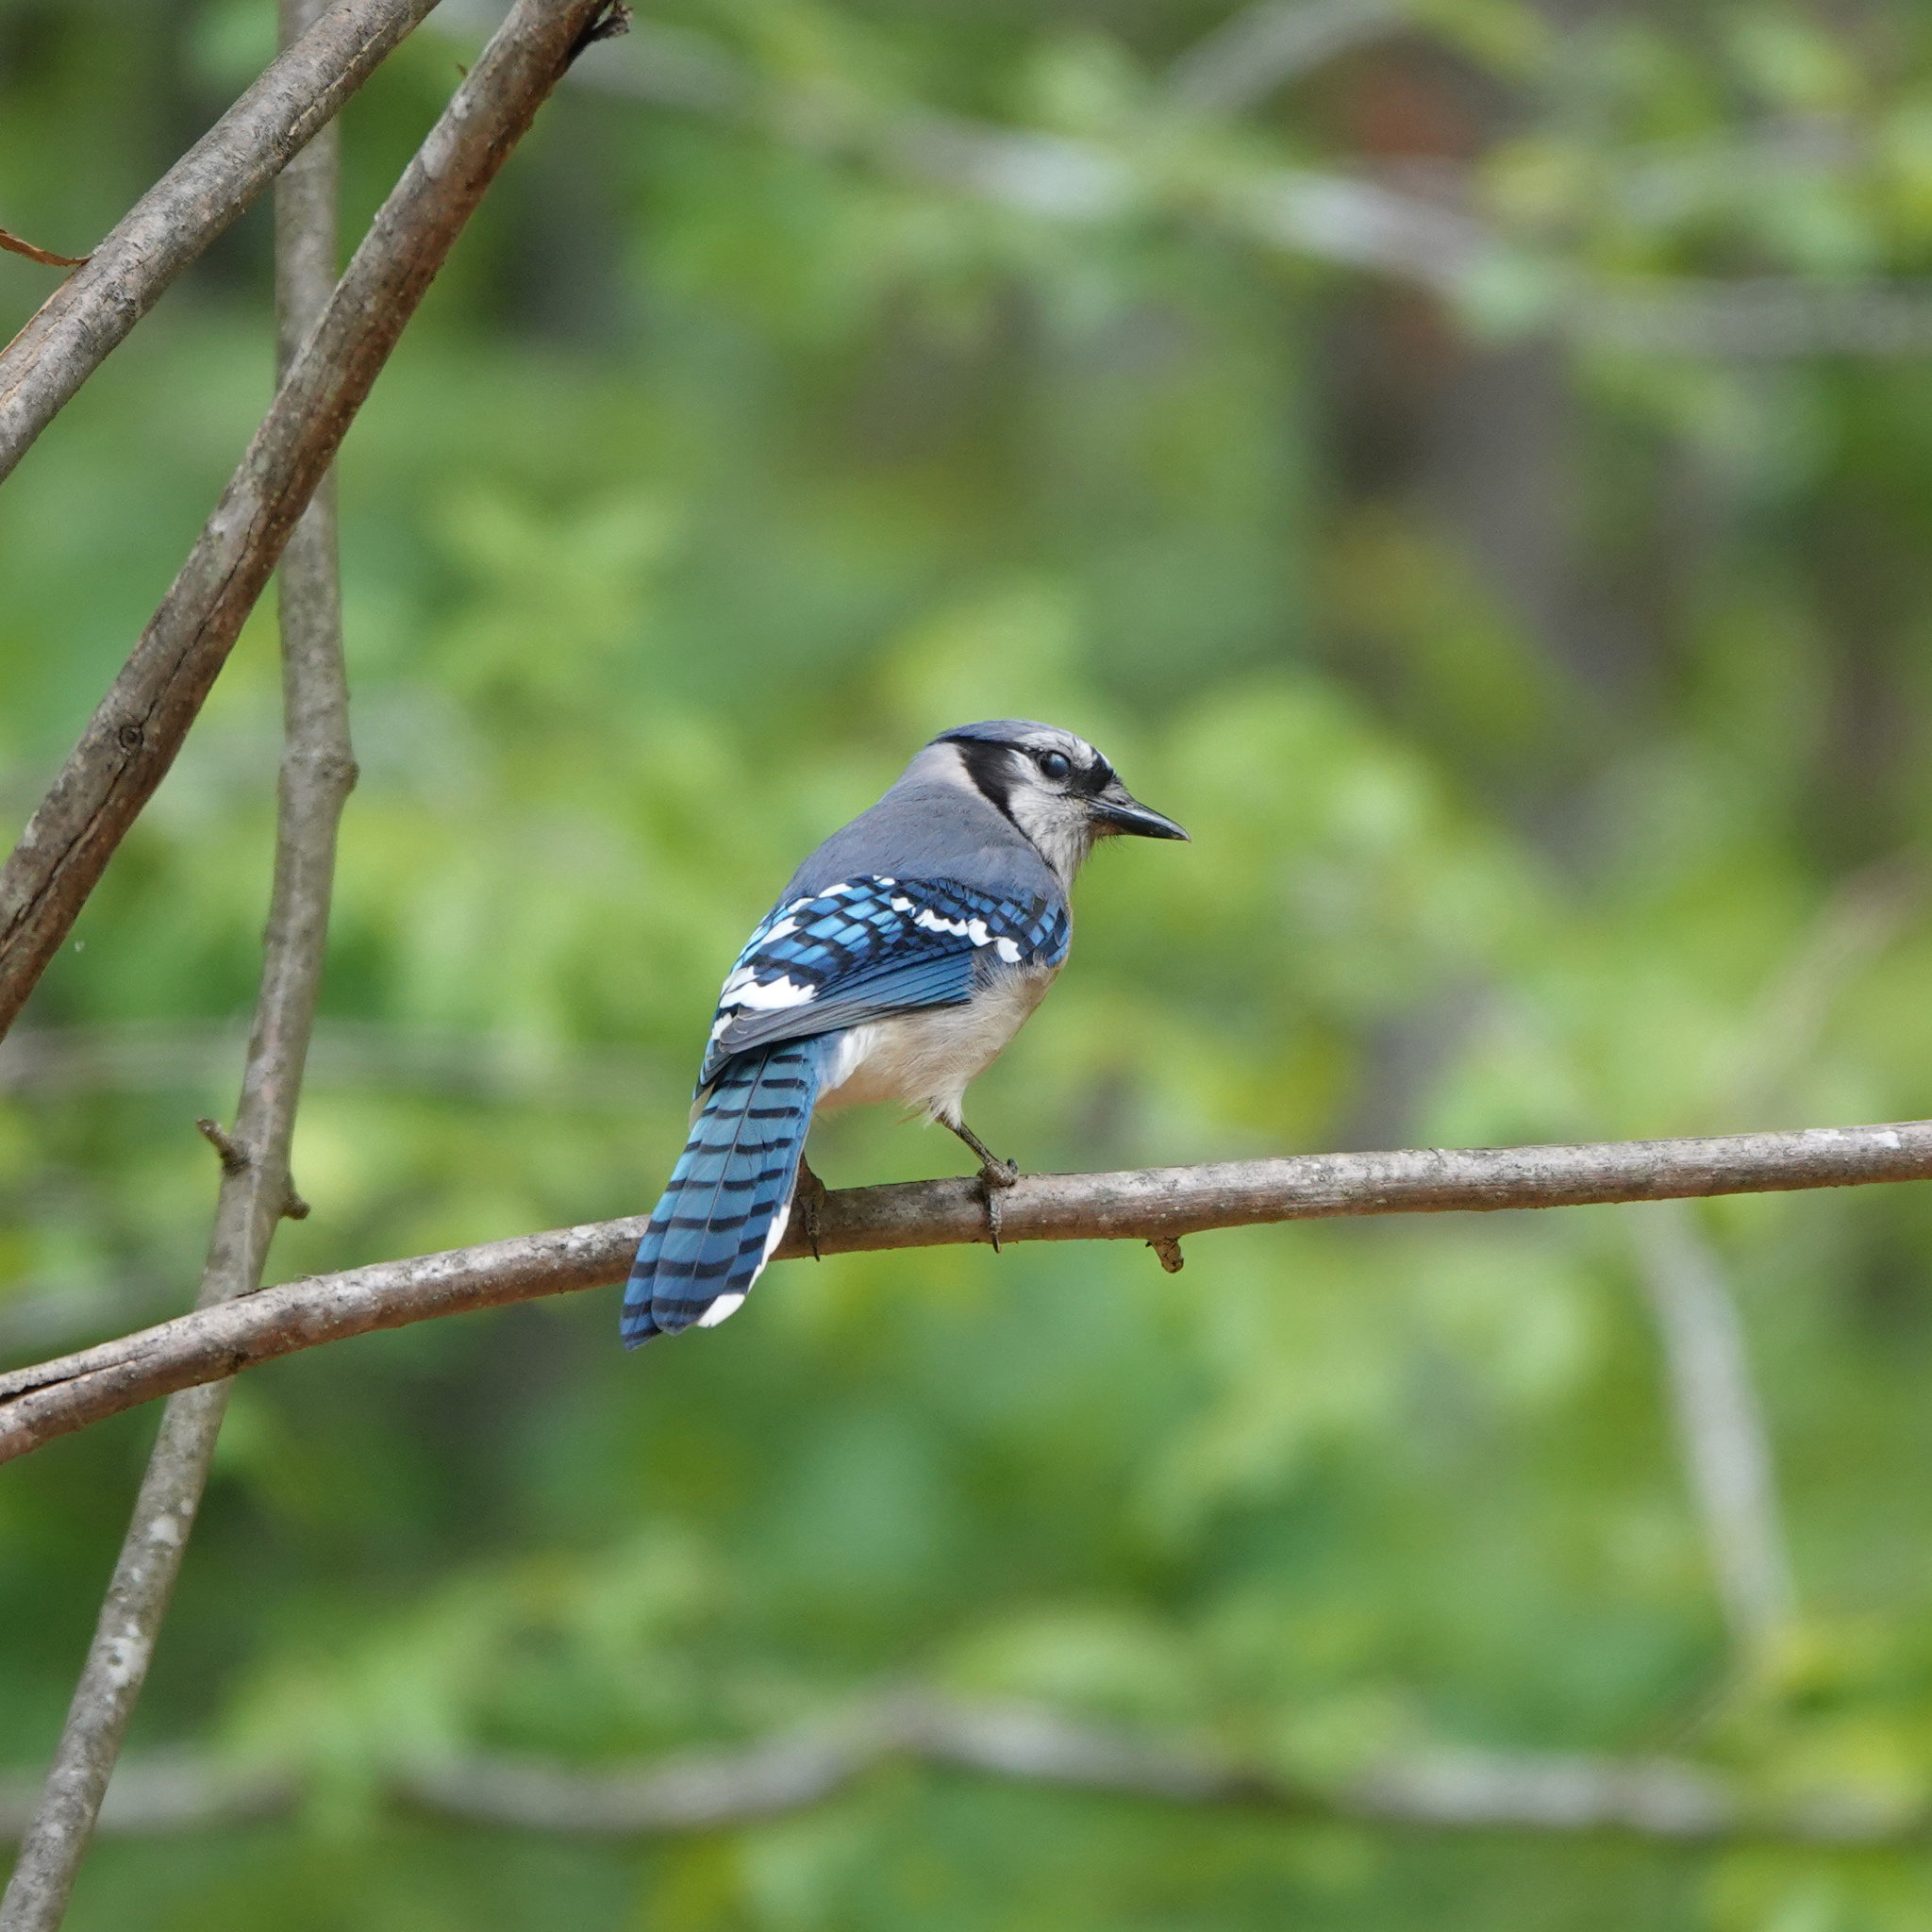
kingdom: Animalia
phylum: Chordata
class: Aves
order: Passeriformes
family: Corvidae
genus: Cyanocitta
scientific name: Cyanocitta cristata
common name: Blue jay
